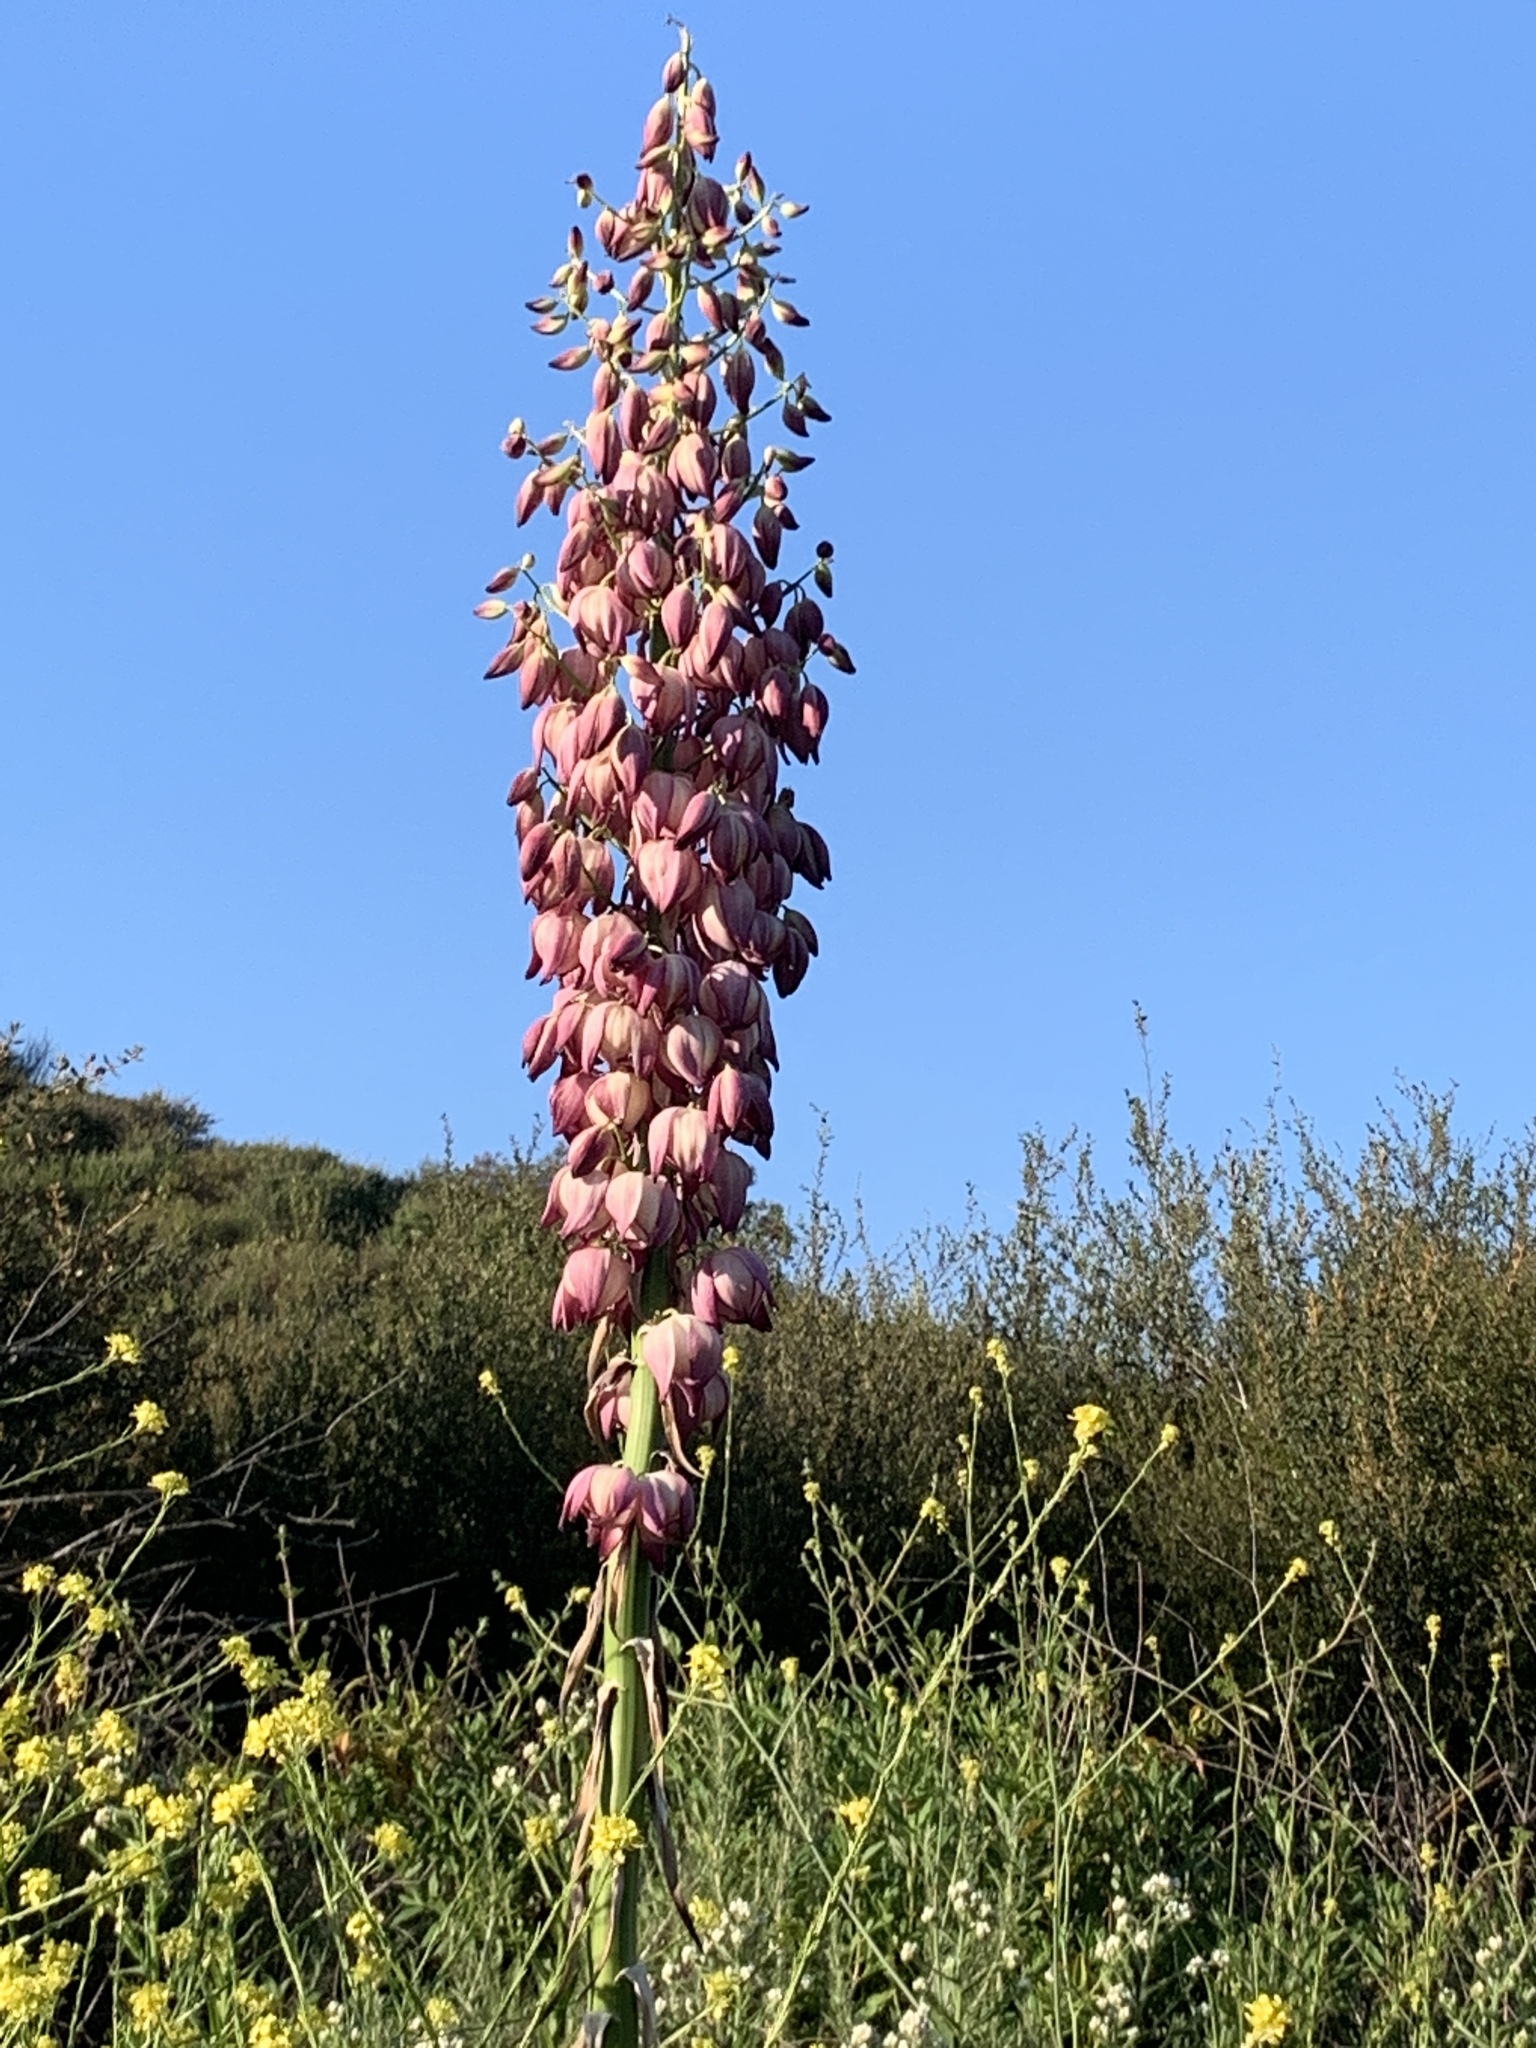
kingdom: Plantae
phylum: Tracheophyta
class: Liliopsida
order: Asparagales
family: Asparagaceae
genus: Hesperoyucca
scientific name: Hesperoyucca whipplei
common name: Our lord's-candle
